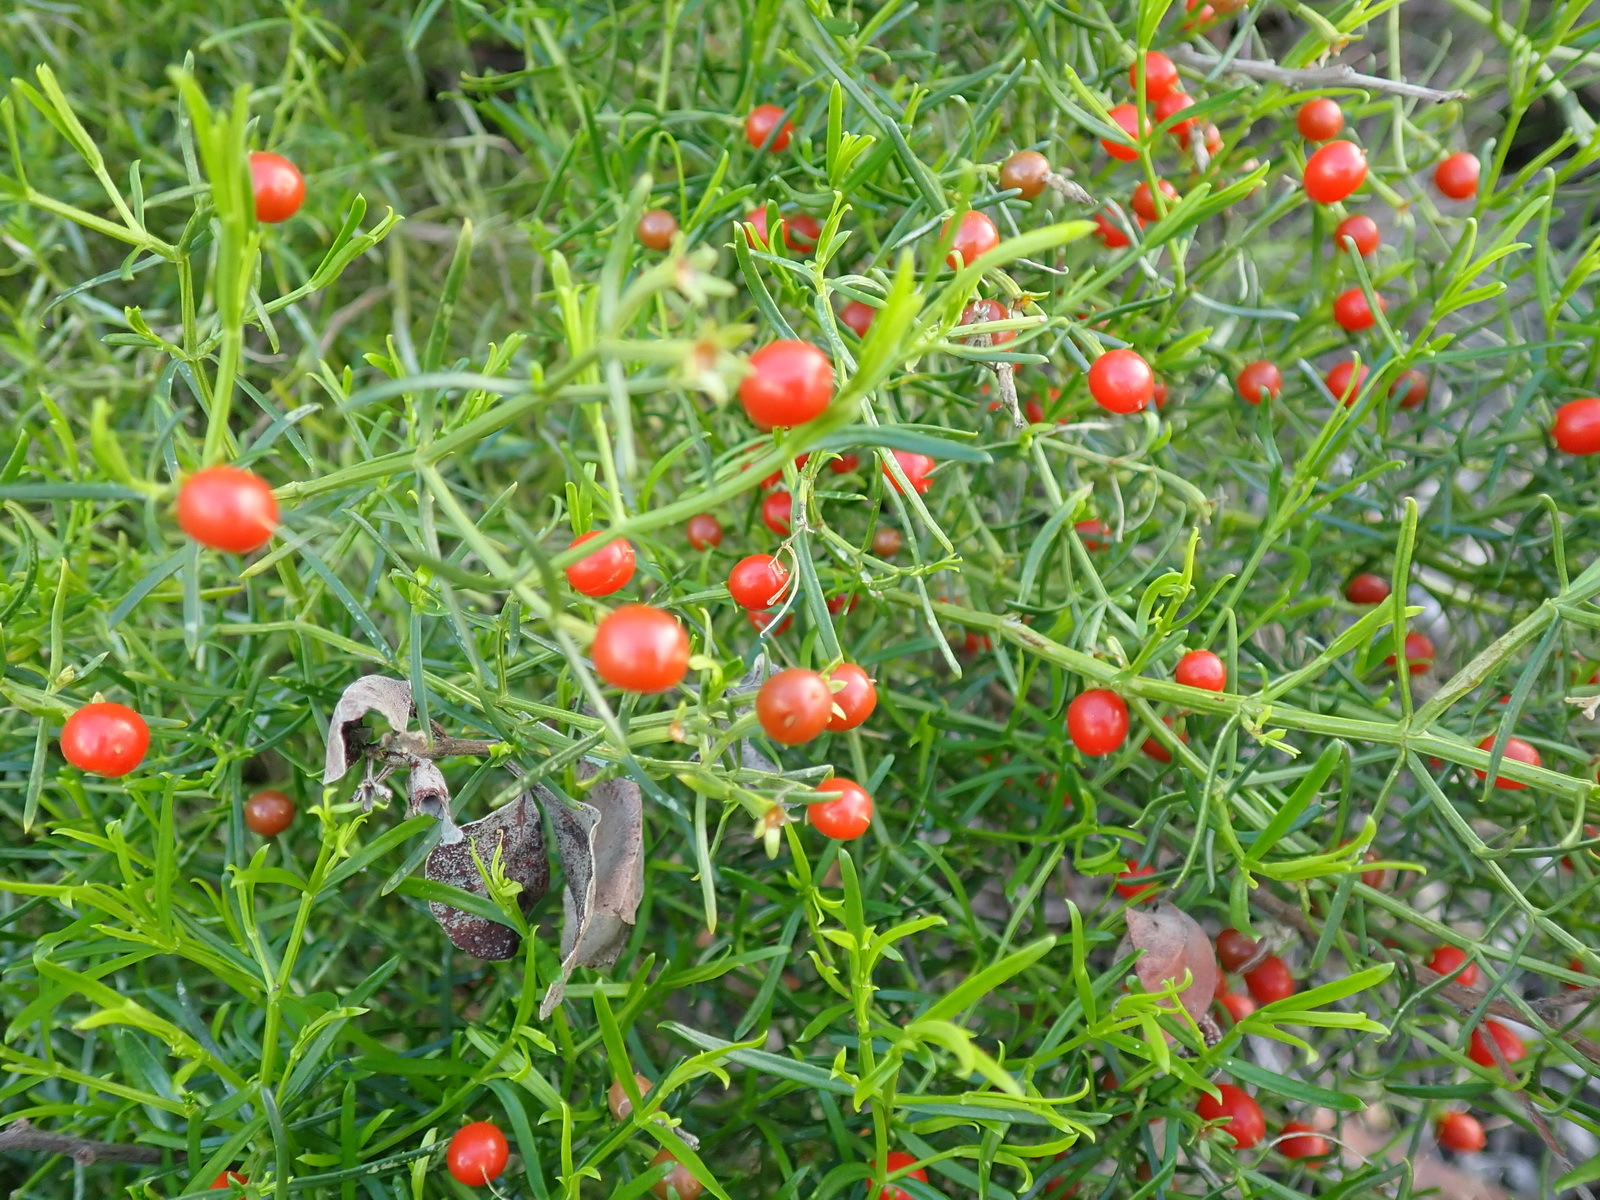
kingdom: Plantae
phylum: Tracheophyta
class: Magnoliopsida
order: Gentianales
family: Gentianaceae
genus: Chironia
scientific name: Chironia baccifera
